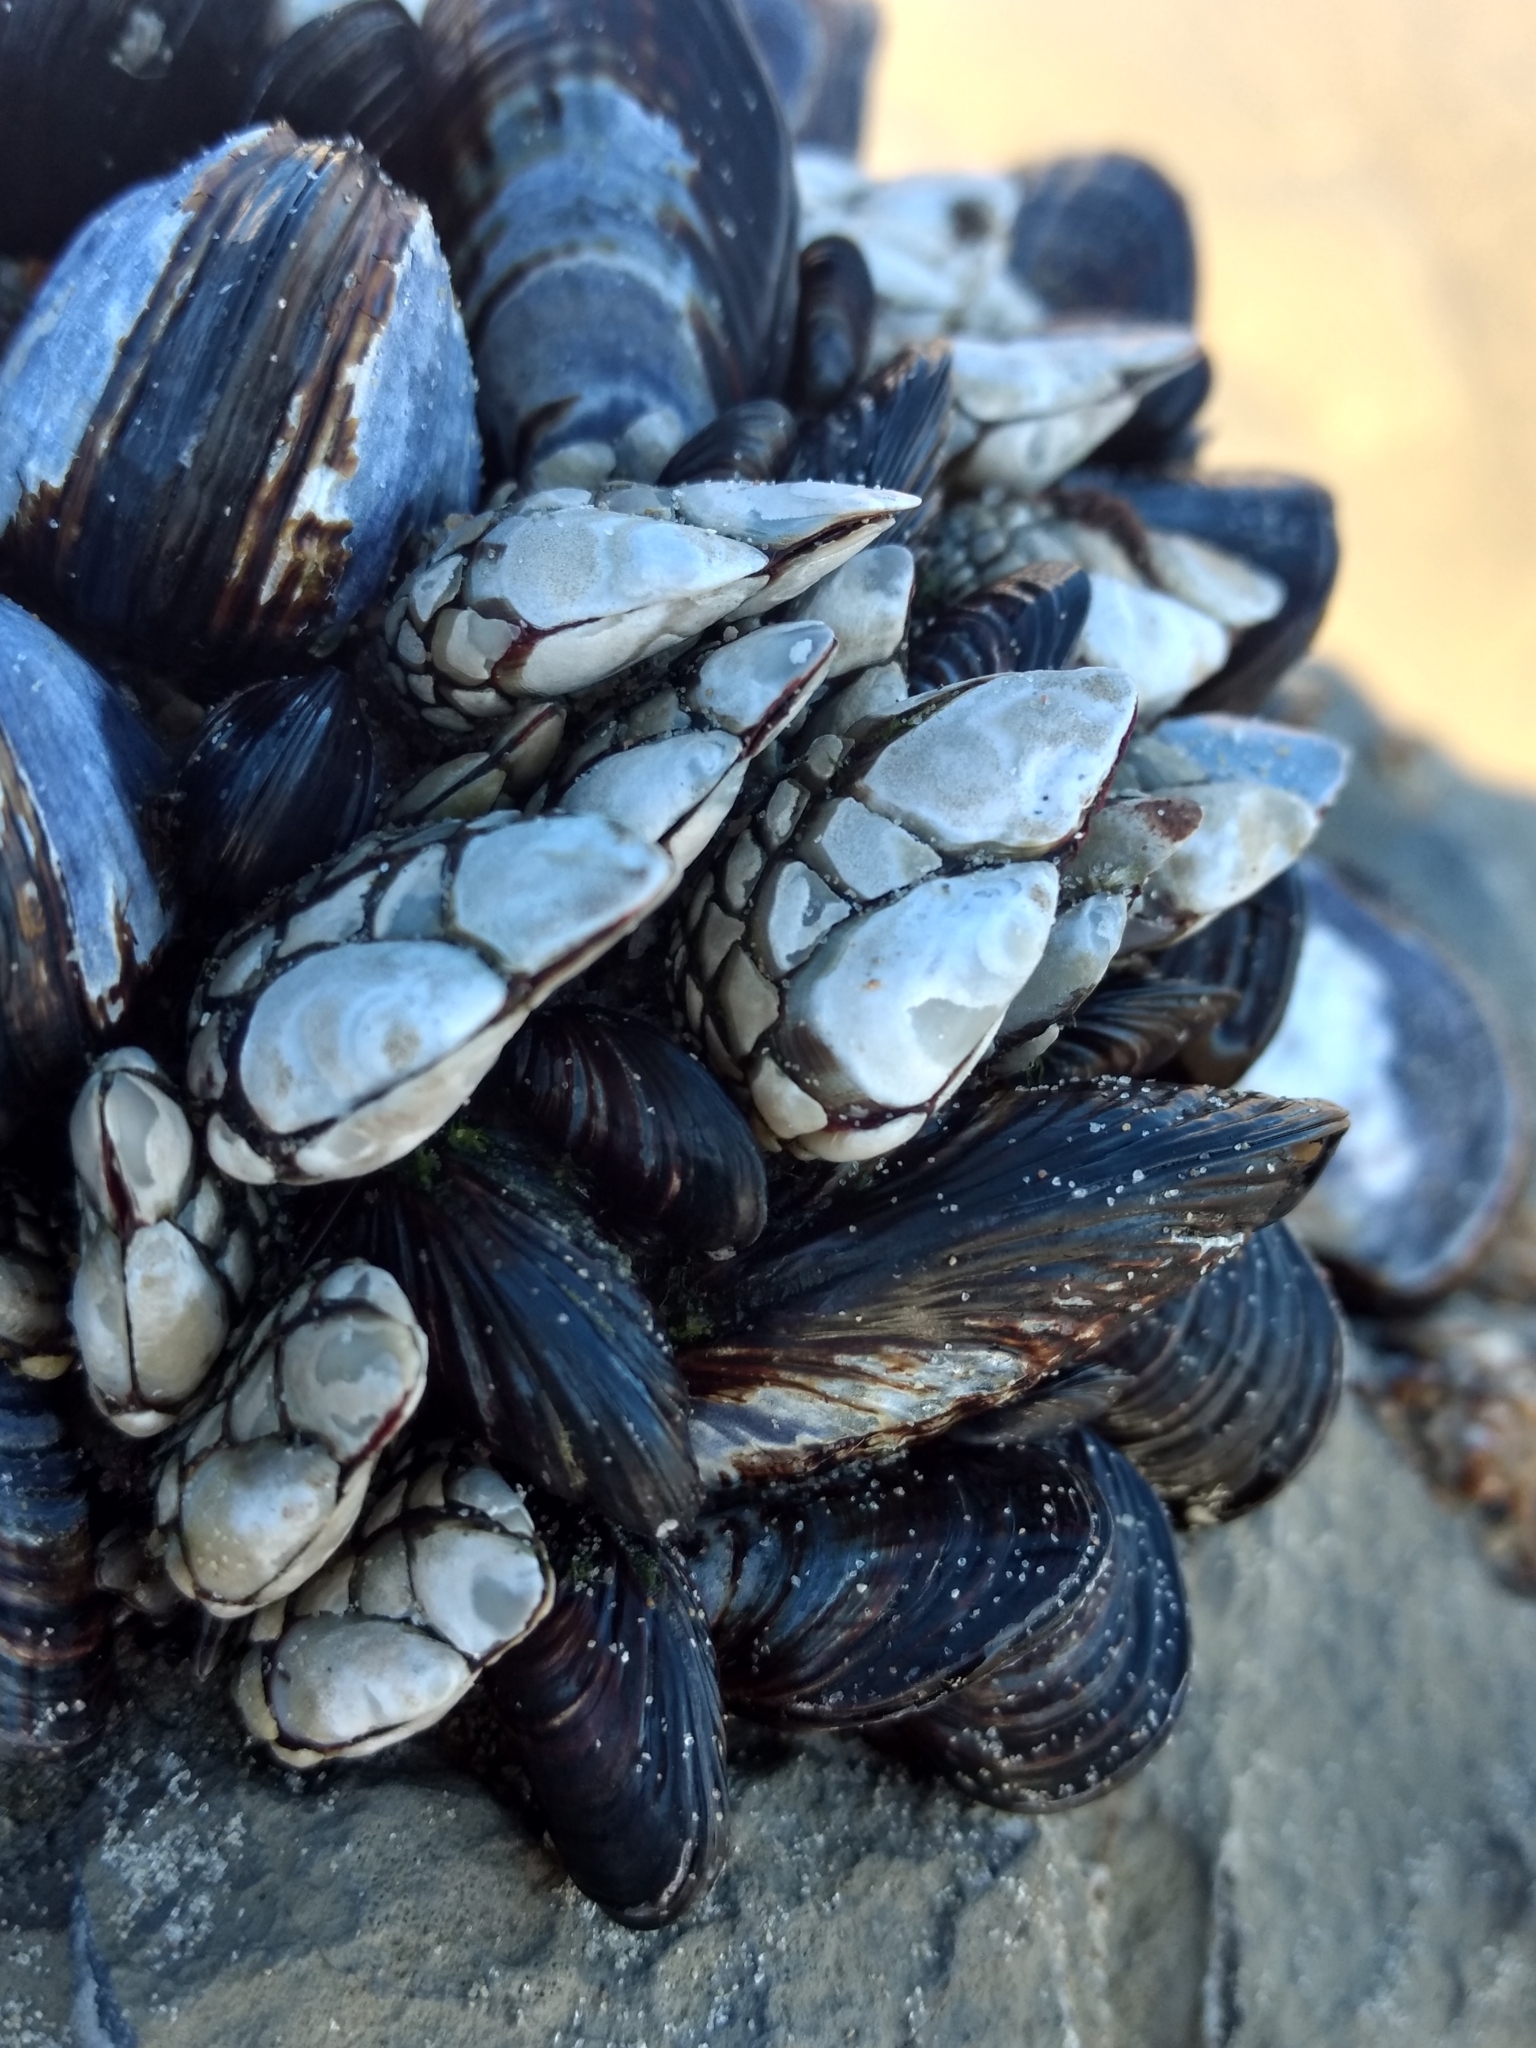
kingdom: Animalia
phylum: Arthropoda
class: Maxillopoda
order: Pedunculata
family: Pollicipedidae
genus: Pollicipes
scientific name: Pollicipes polymerus
